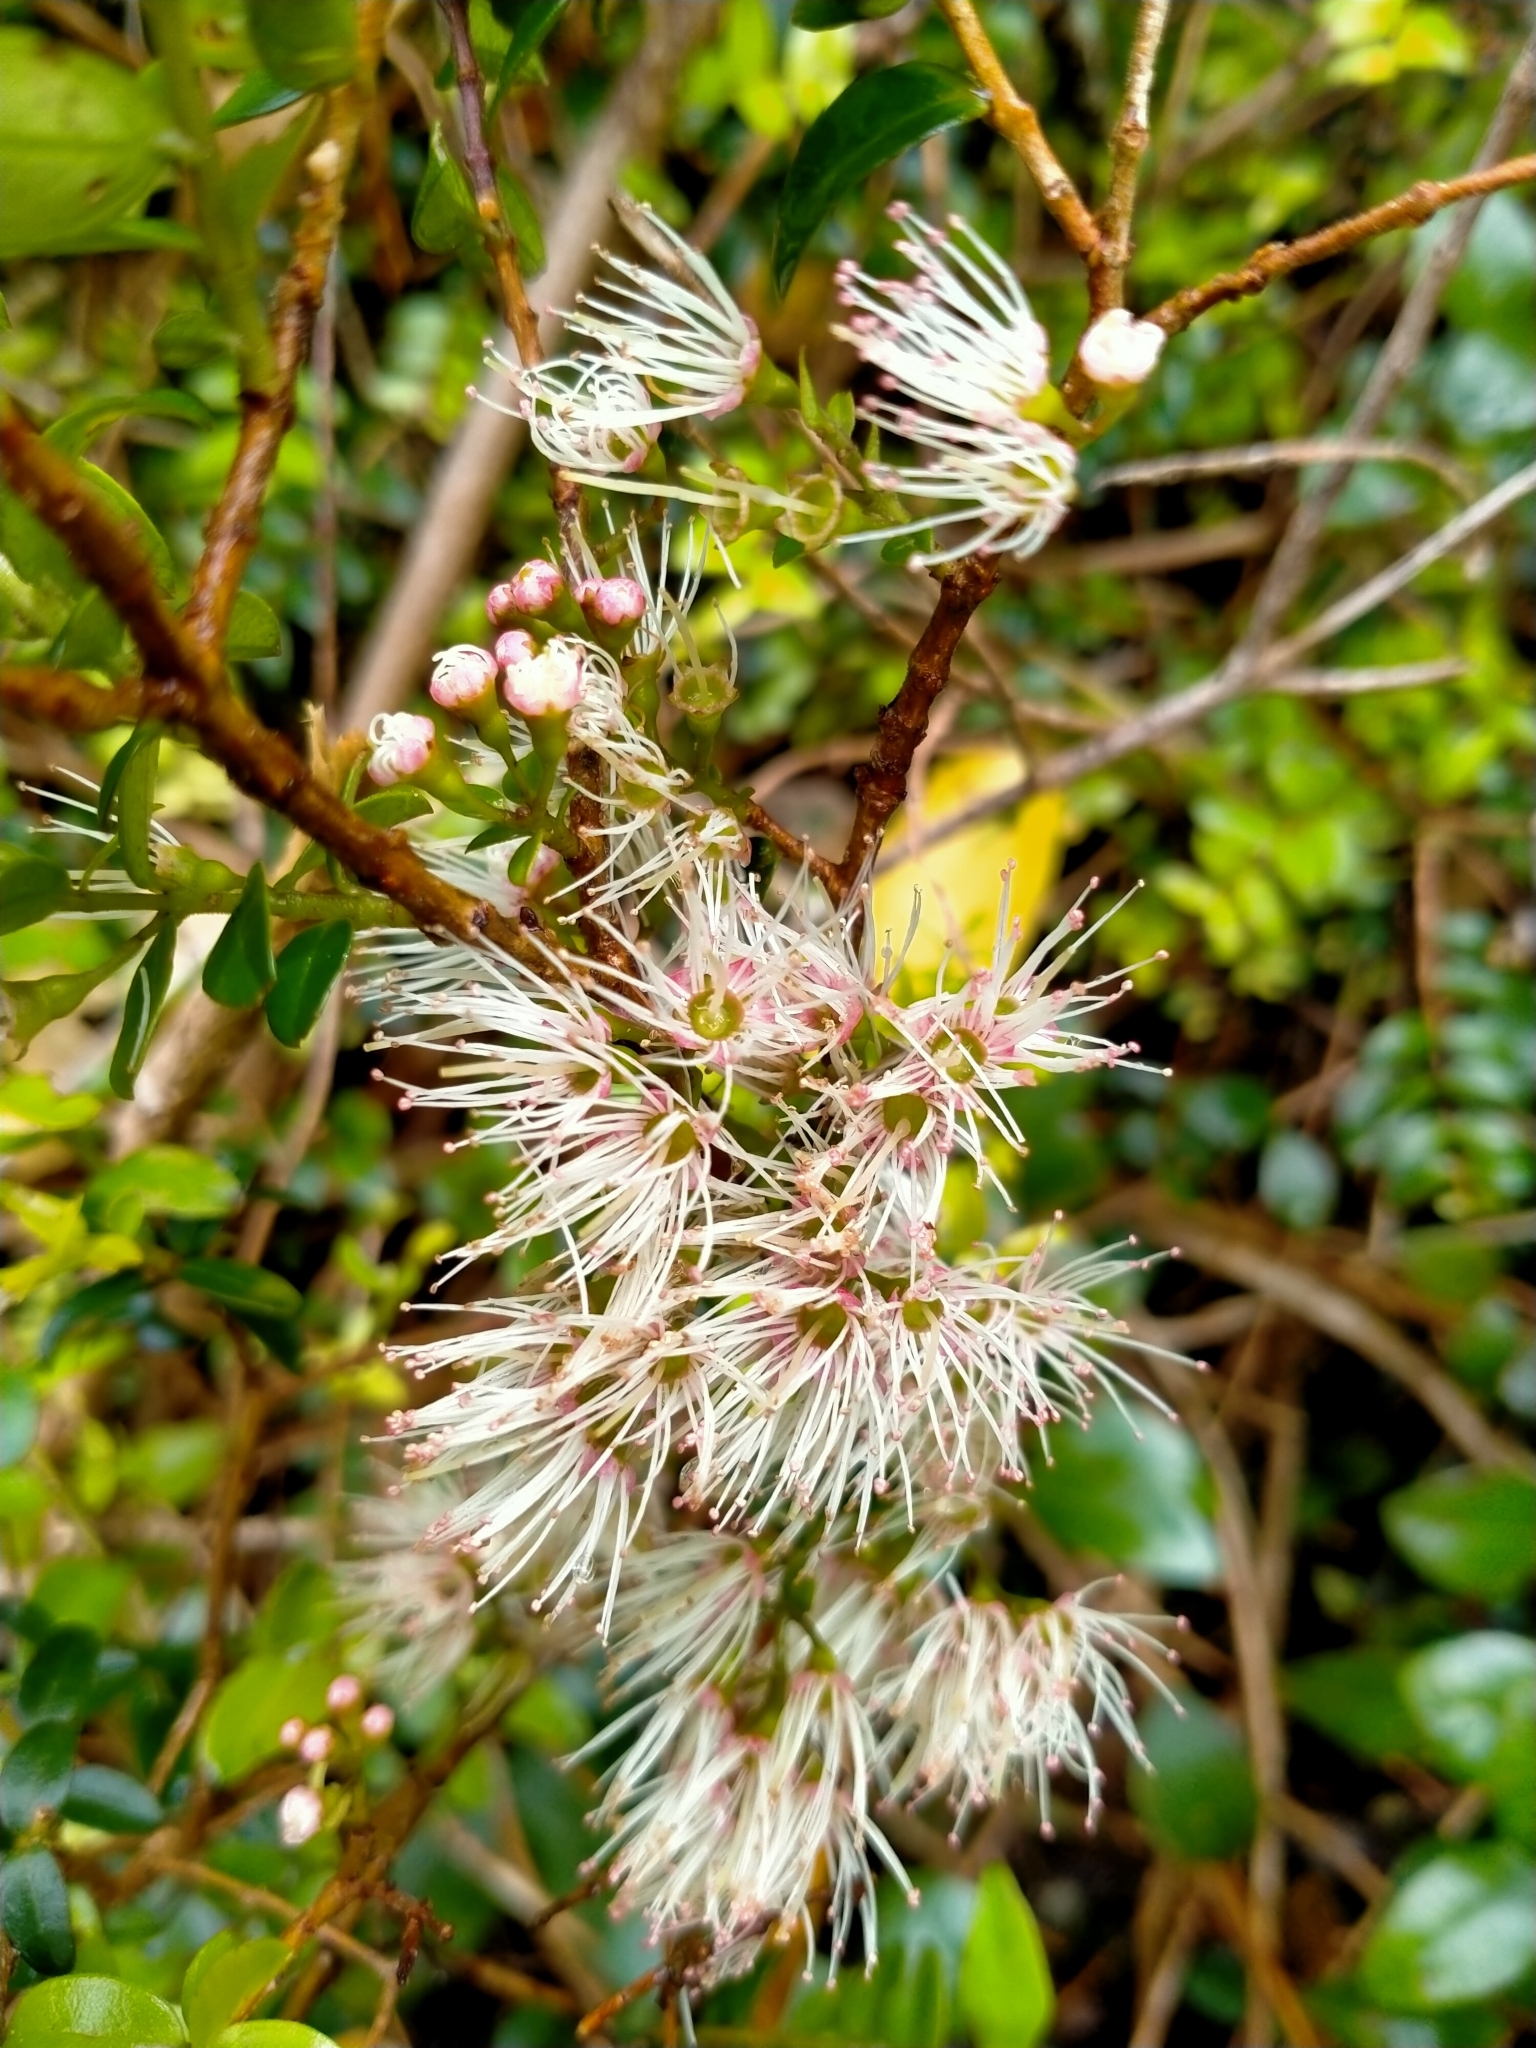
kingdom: Plantae
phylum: Tracheophyta
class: Magnoliopsida
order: Myrtales
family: Myrtaceae
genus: Metrosideros
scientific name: Metrosideros diffusa
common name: Small ratavine
